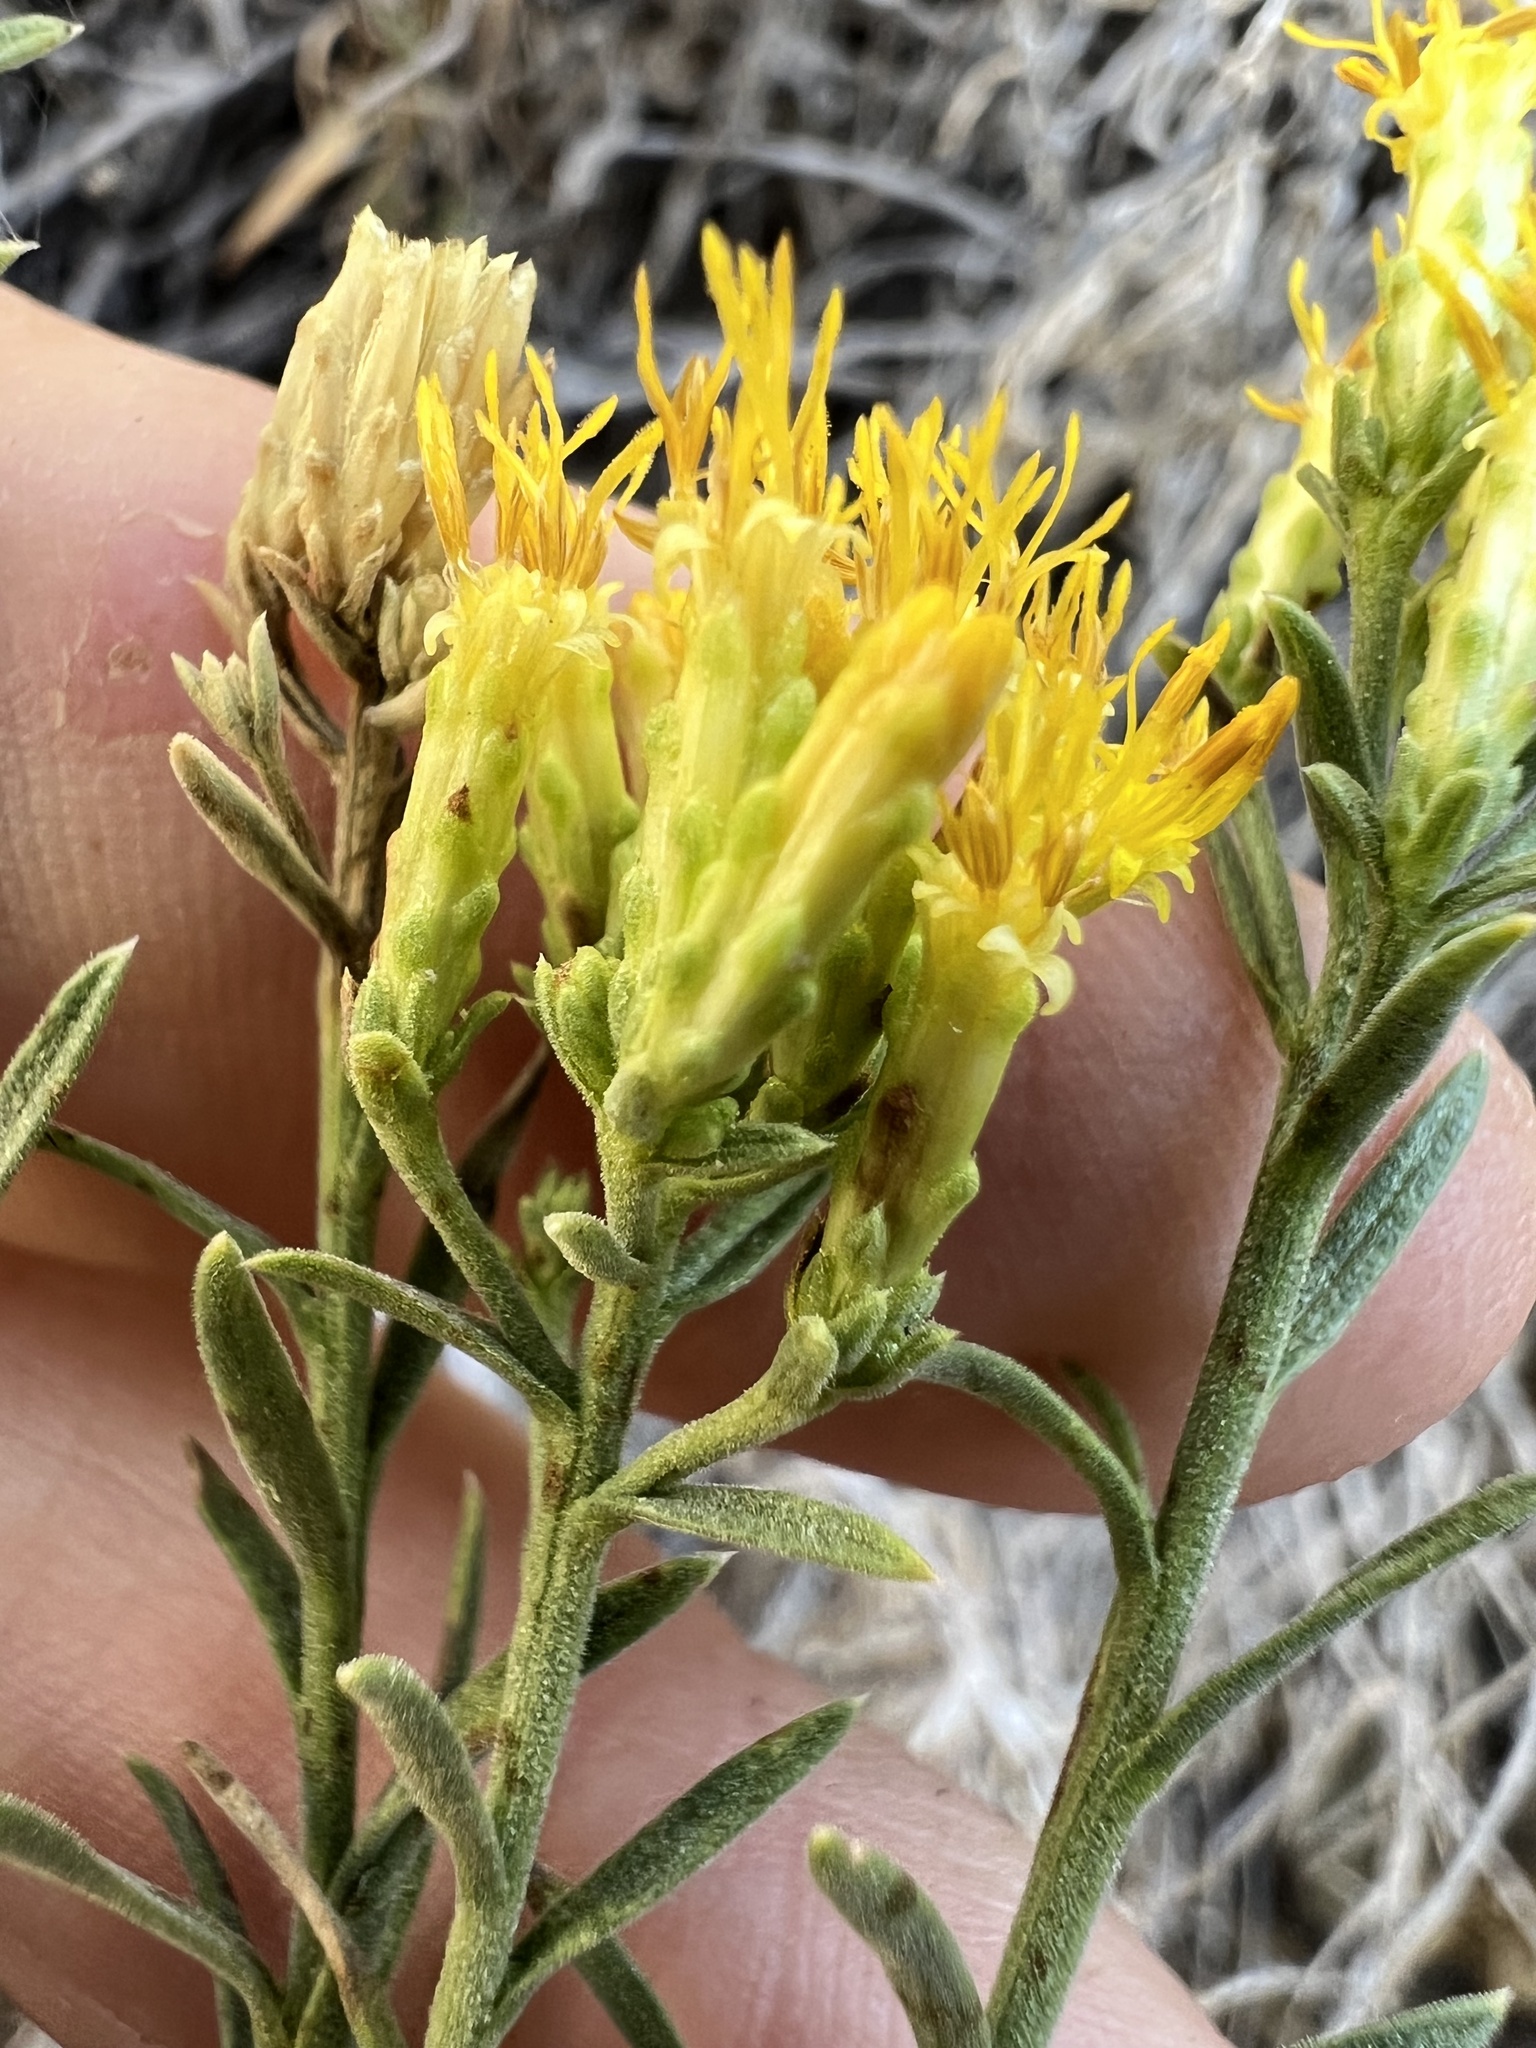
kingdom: Plantae
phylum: Tracheophyta
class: Magnoliopsida
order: Asterales
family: Asteraceae
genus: Chrysothamnus
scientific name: Chrysothamnus viscidiflorus
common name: Yellow rabbitbrush
